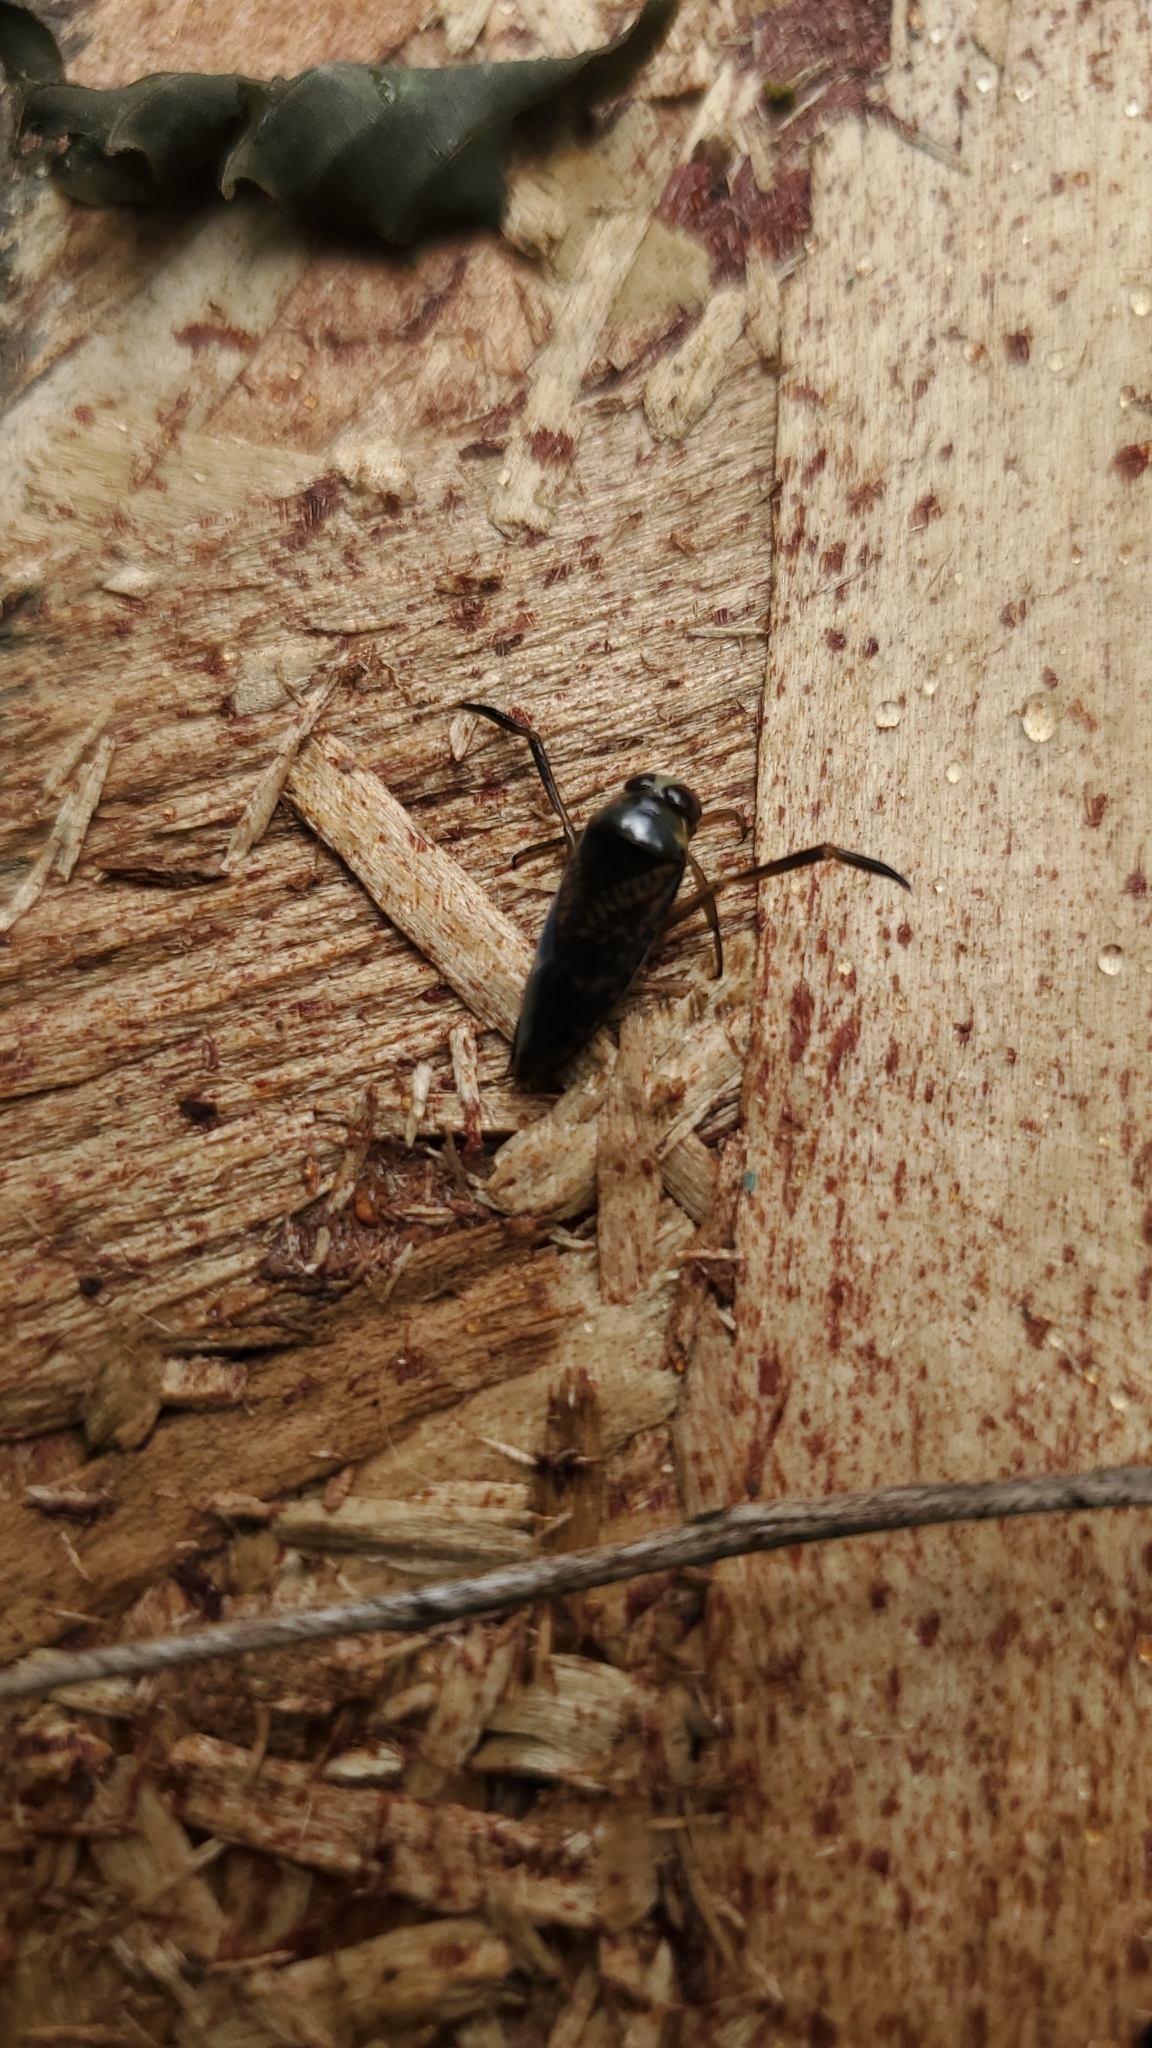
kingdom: Animalia
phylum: Arthropoda
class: Insecta
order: Hemiptera
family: Notonectidae
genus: Notonecta
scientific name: Notonecta irrorata
